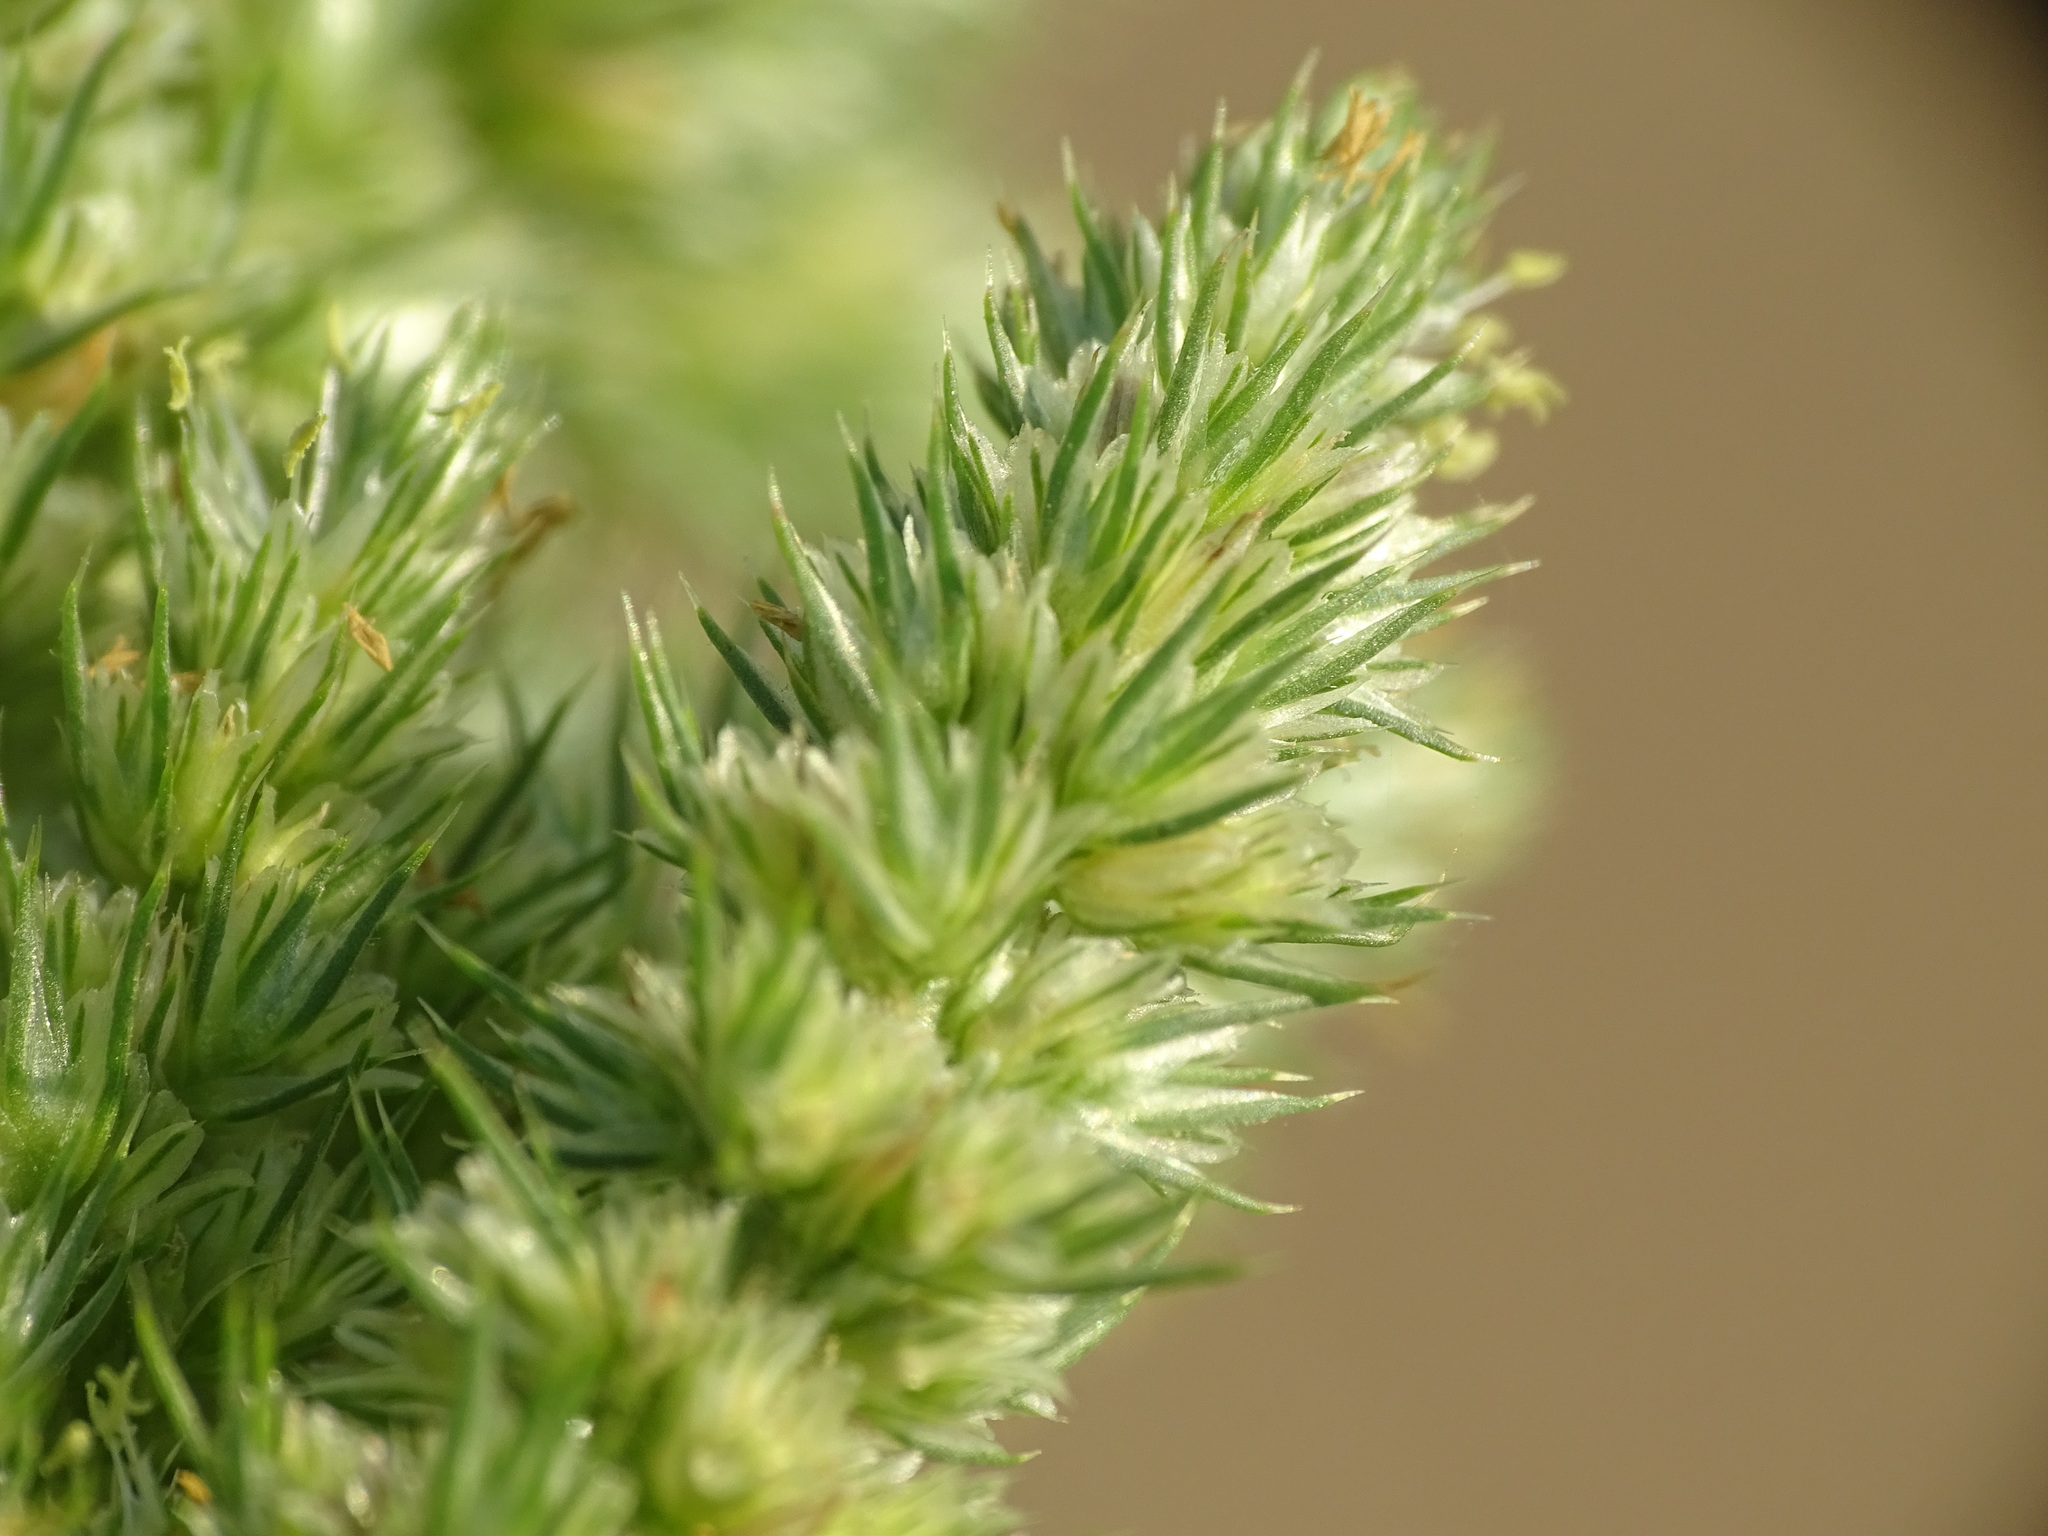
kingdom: Plantae
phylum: Tracheophyta
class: Magnoliopsida
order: Caryophyllales
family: Amaranthaceae
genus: Amaranthus
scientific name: Amaranthus retroflexus
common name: Redroot amaranth
